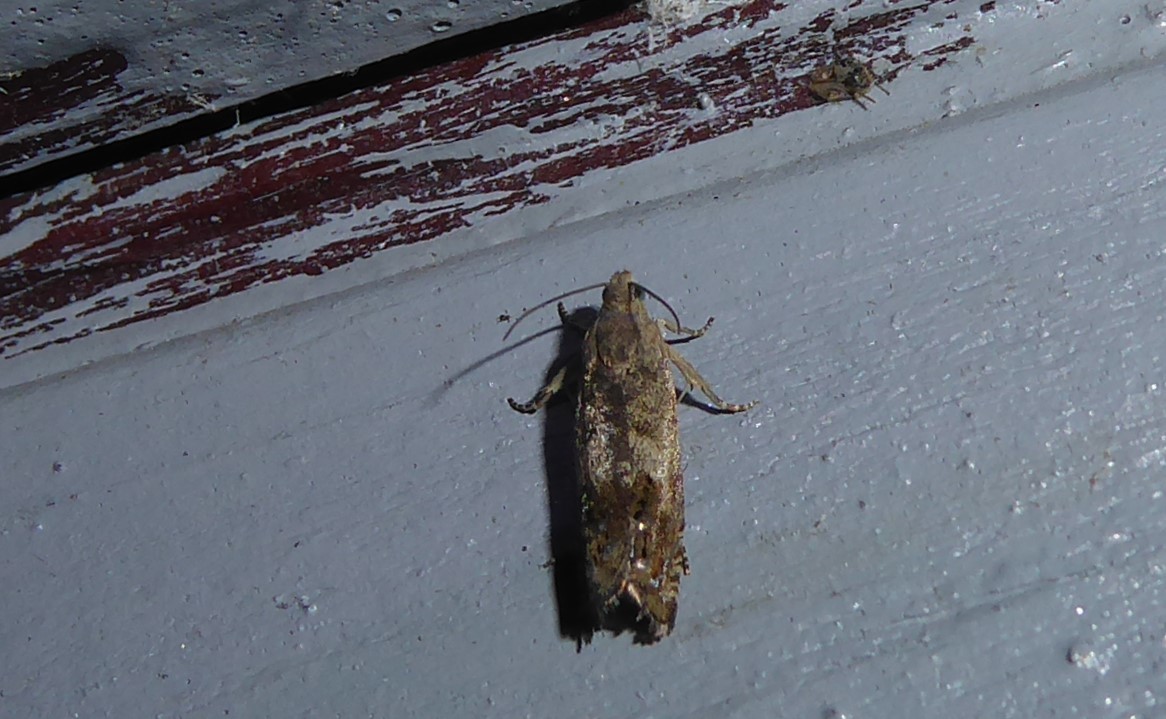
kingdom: Animalia
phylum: Arthropoda
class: Insecta
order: Lepidoptera
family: Tortricidae
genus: Cydia
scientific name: Cydia succedana
